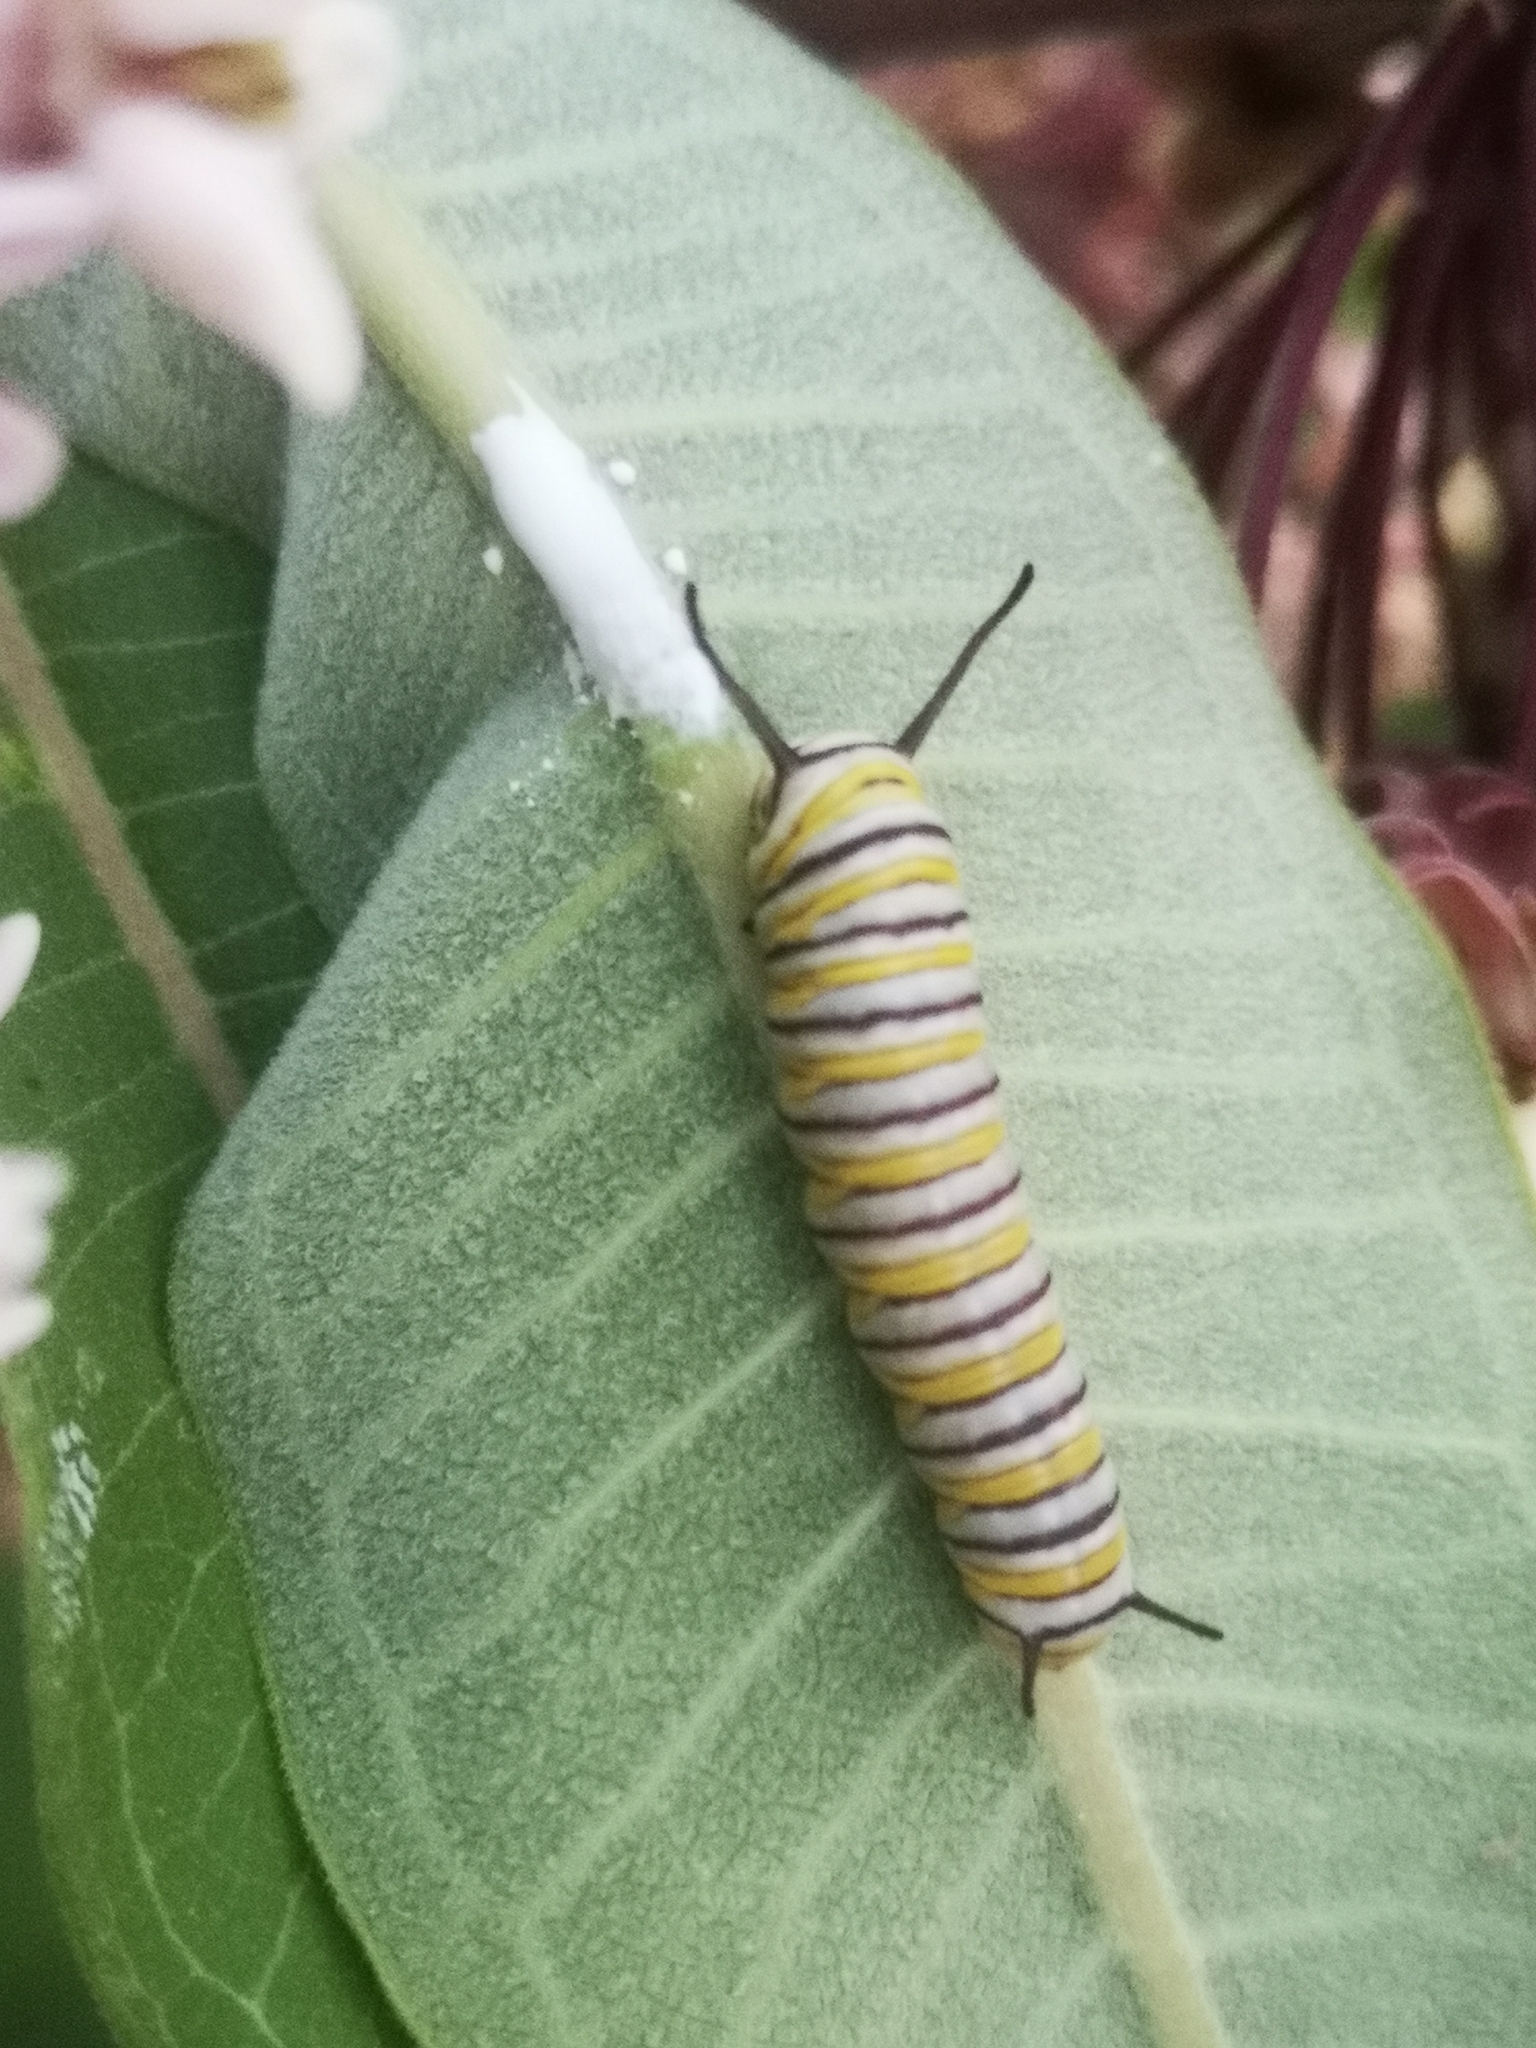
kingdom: Animalia
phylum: Arthropoda
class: Insecta
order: Lepidoptera
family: Nymphalidae
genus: Danaus
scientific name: Danaus plexippus
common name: Monarch
